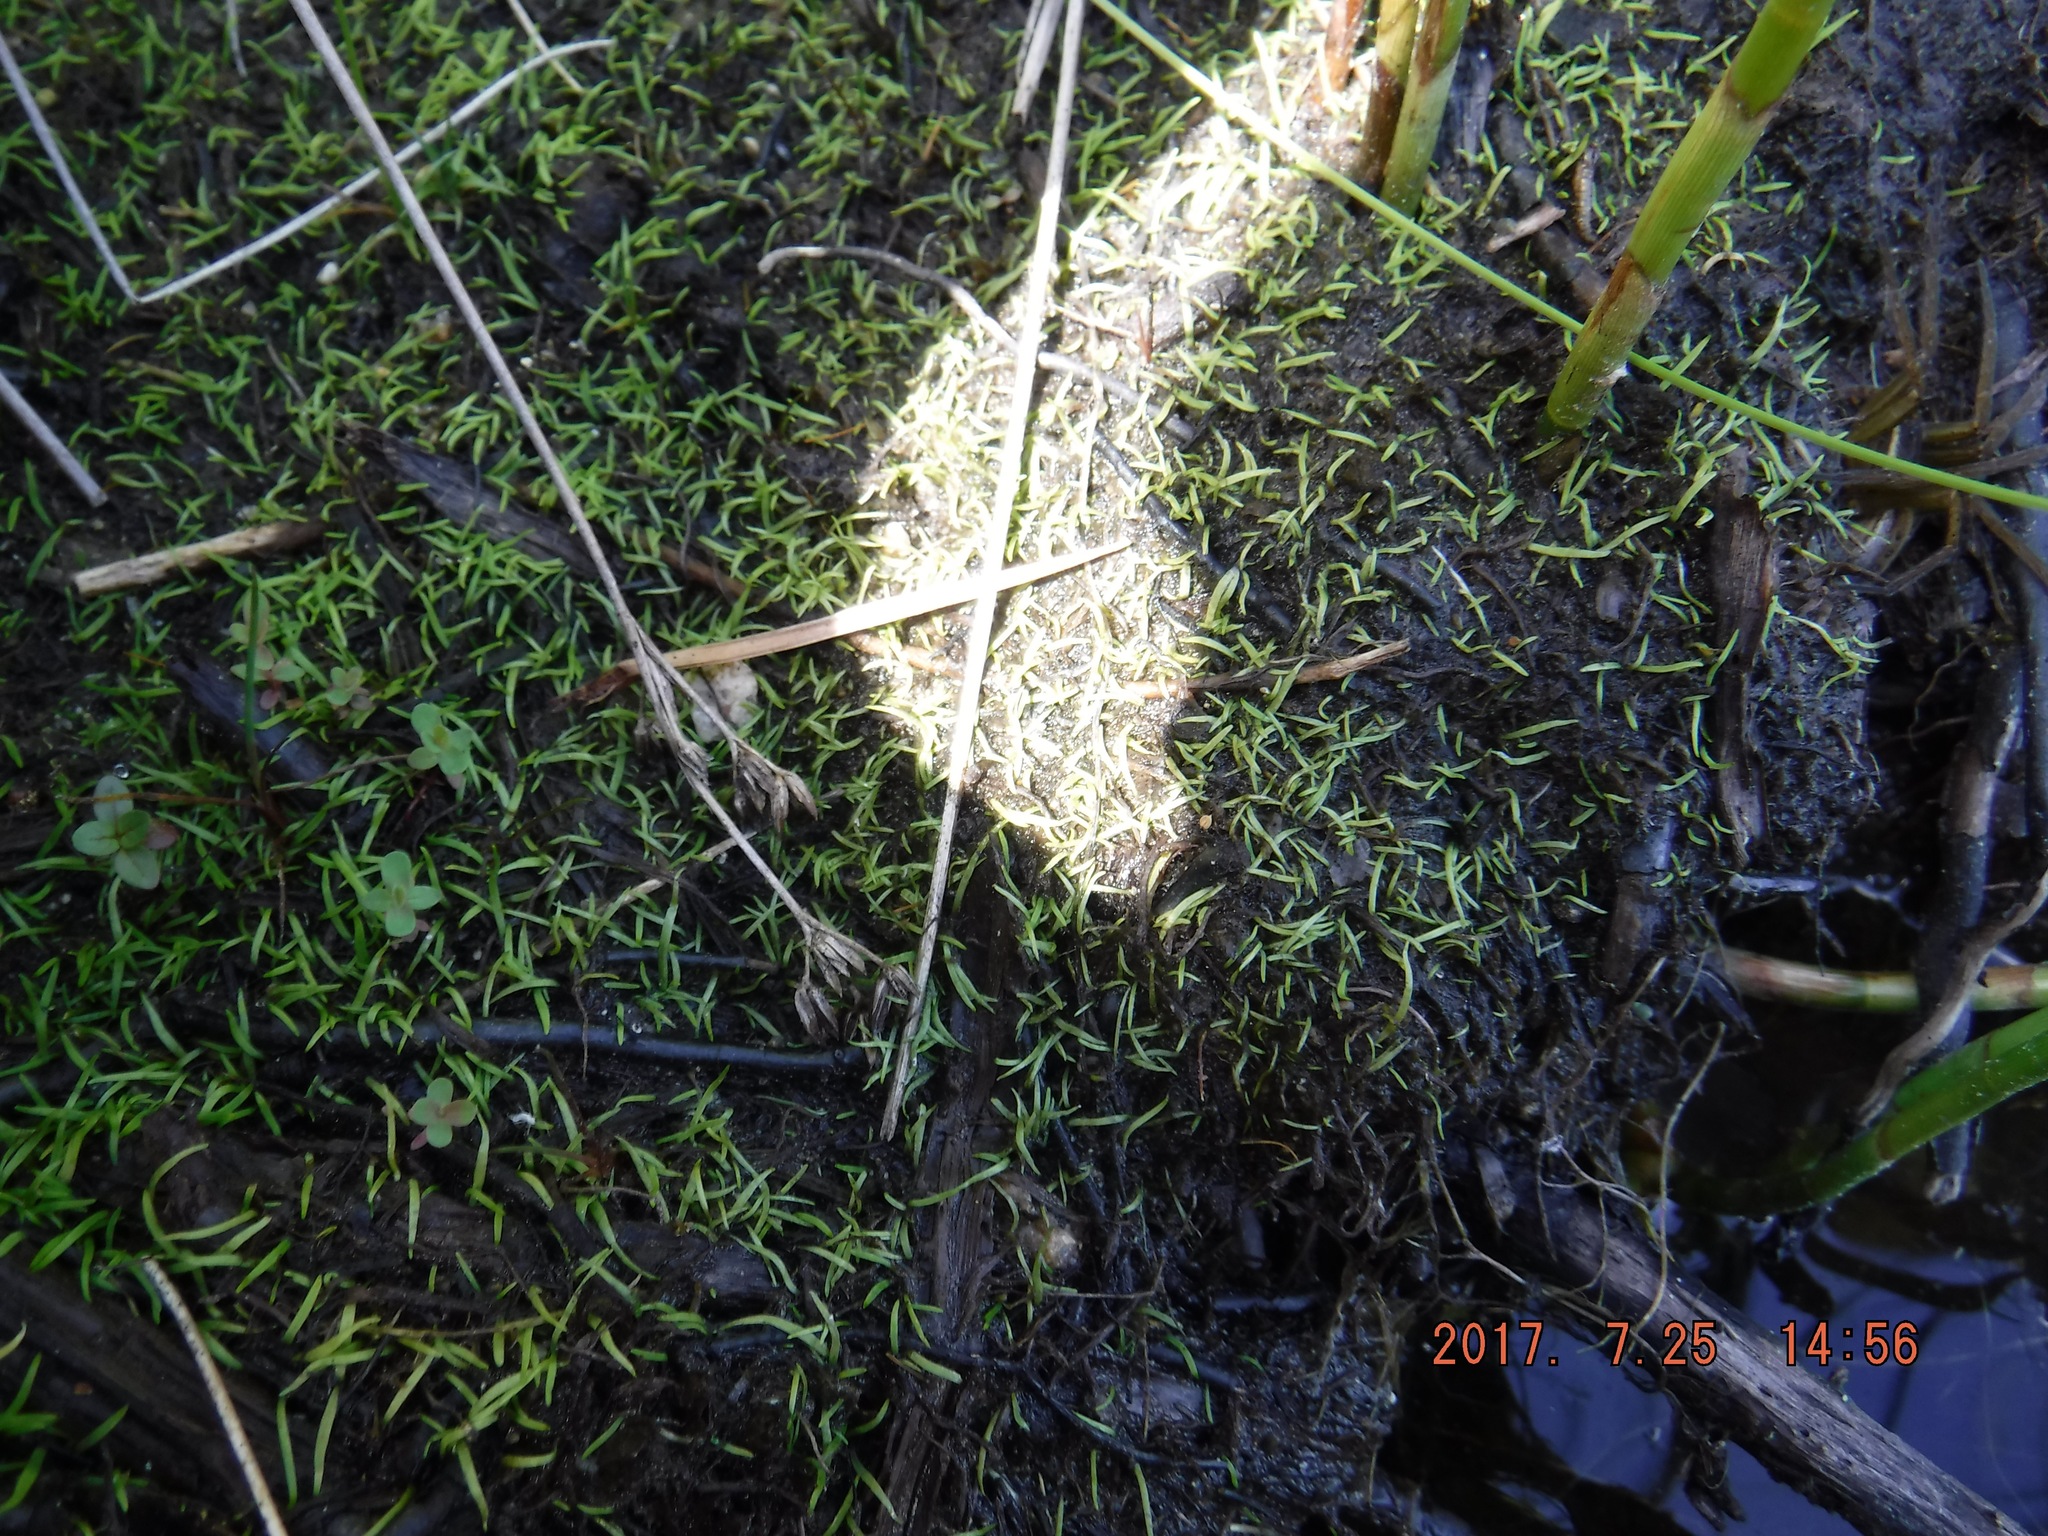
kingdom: Plantae
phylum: Tracheophyta
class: Magnoliopsida
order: Lamiales
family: Lentibulariaceae
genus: Utricularia
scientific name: Utricularia cornuta
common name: Horned bladderwort
